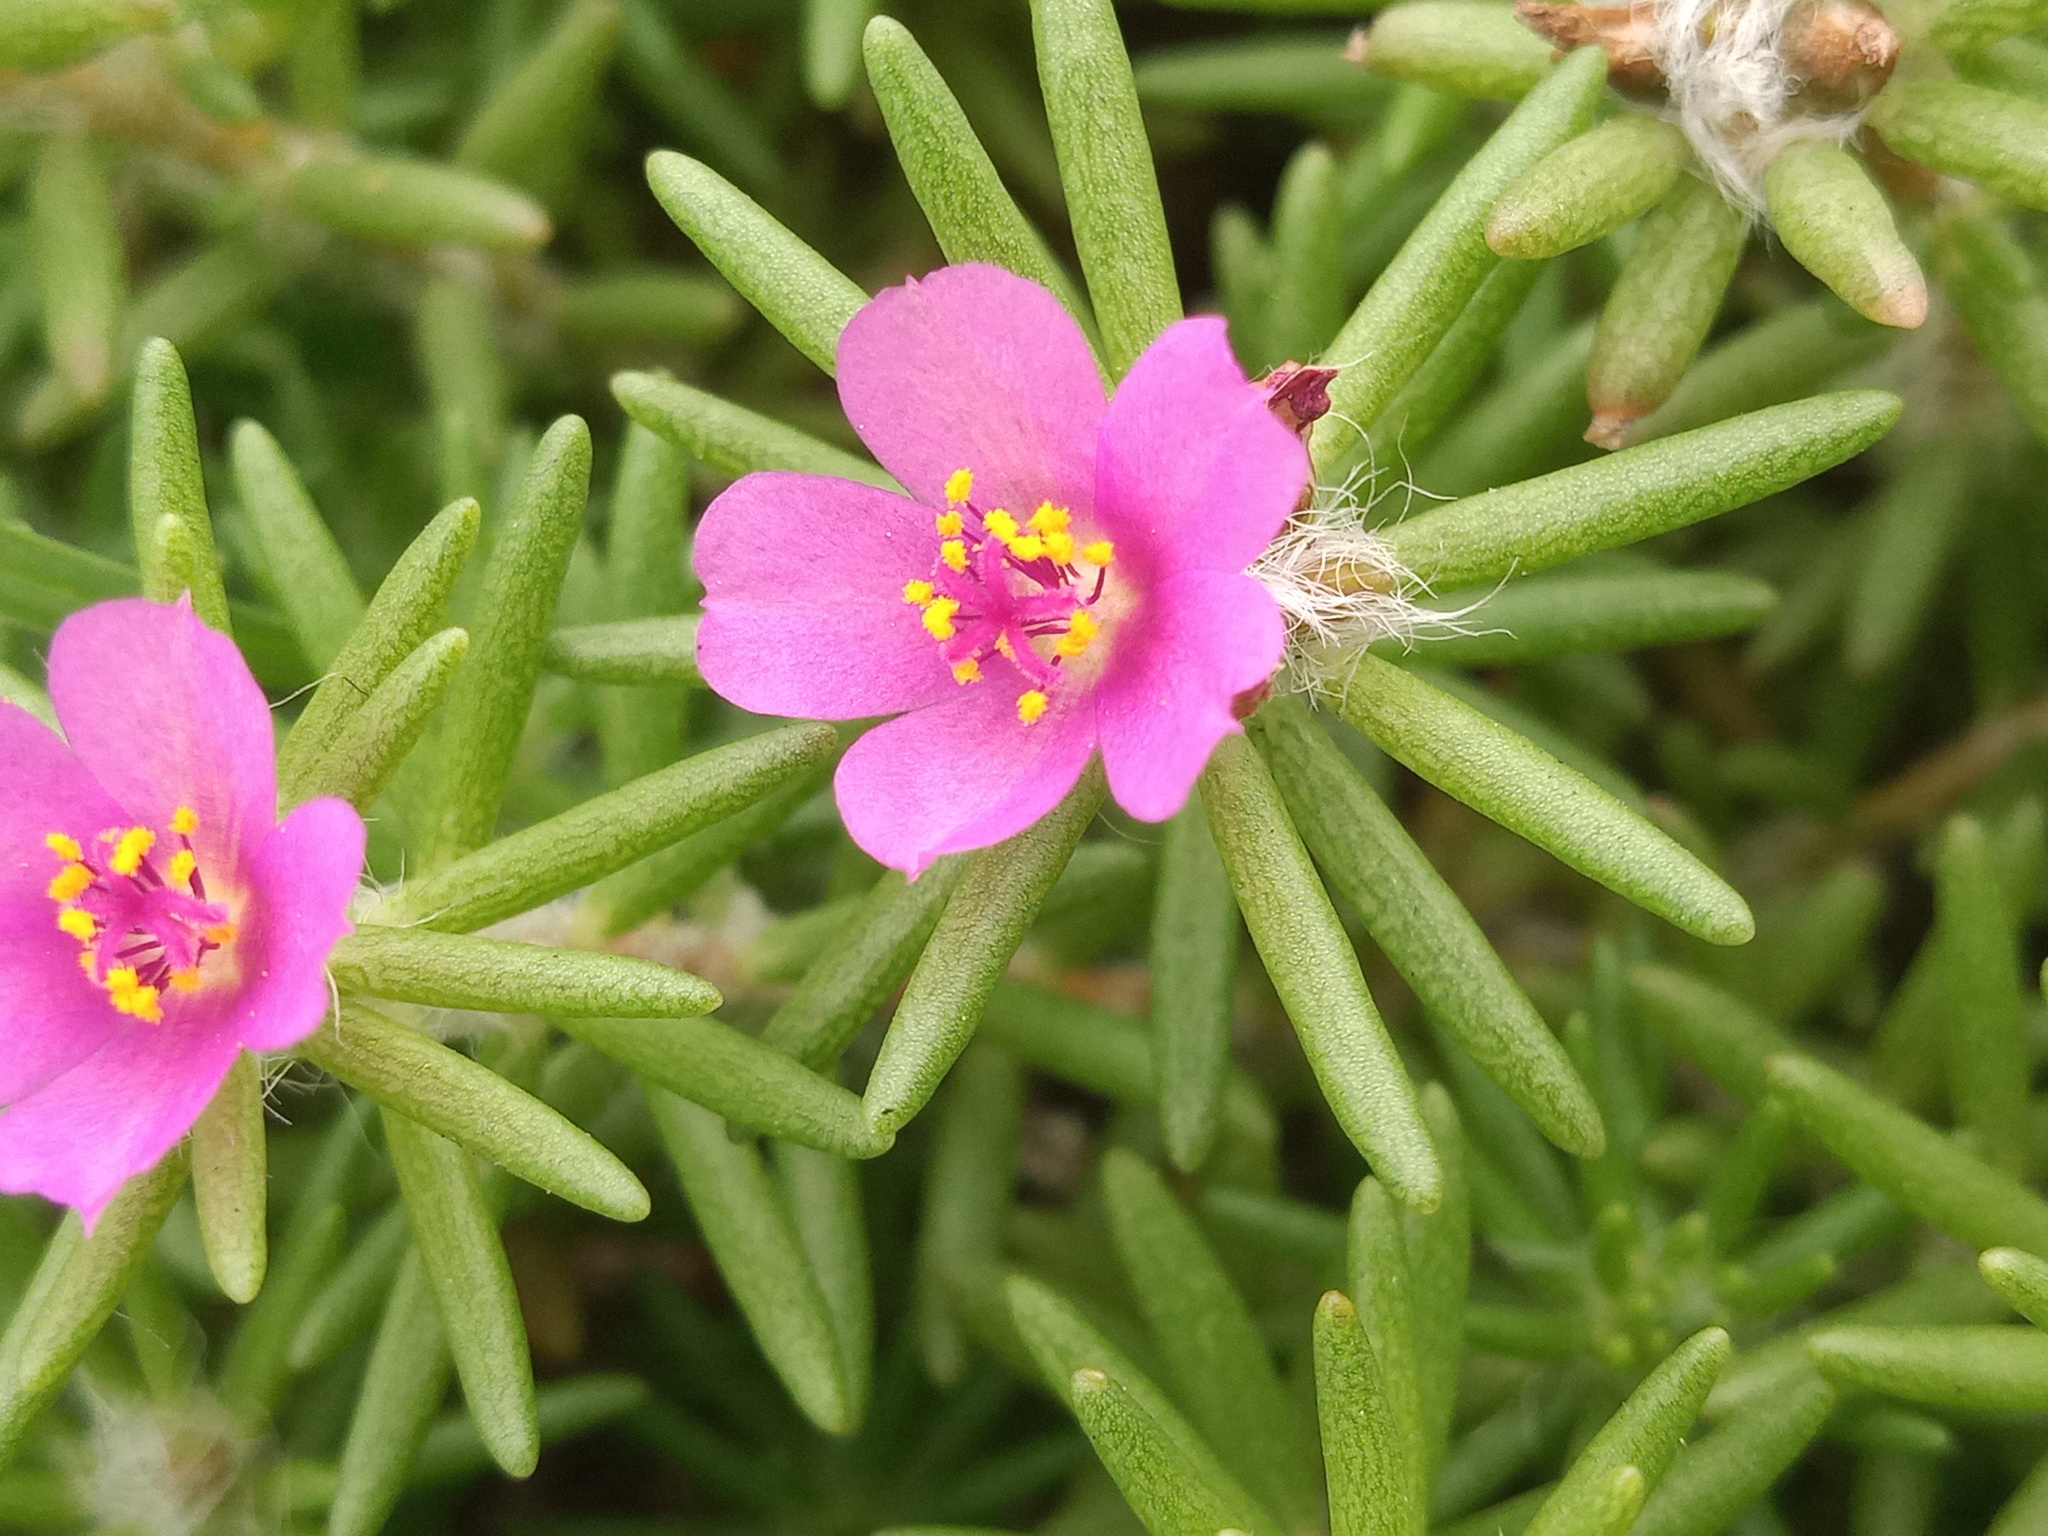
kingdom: Plantae
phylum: Tracheophyta
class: Magnoliopsida
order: Caryophyllales
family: Portulacaceae
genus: Portulaca
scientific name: Portulaca pilosa
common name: Kiss me quick
